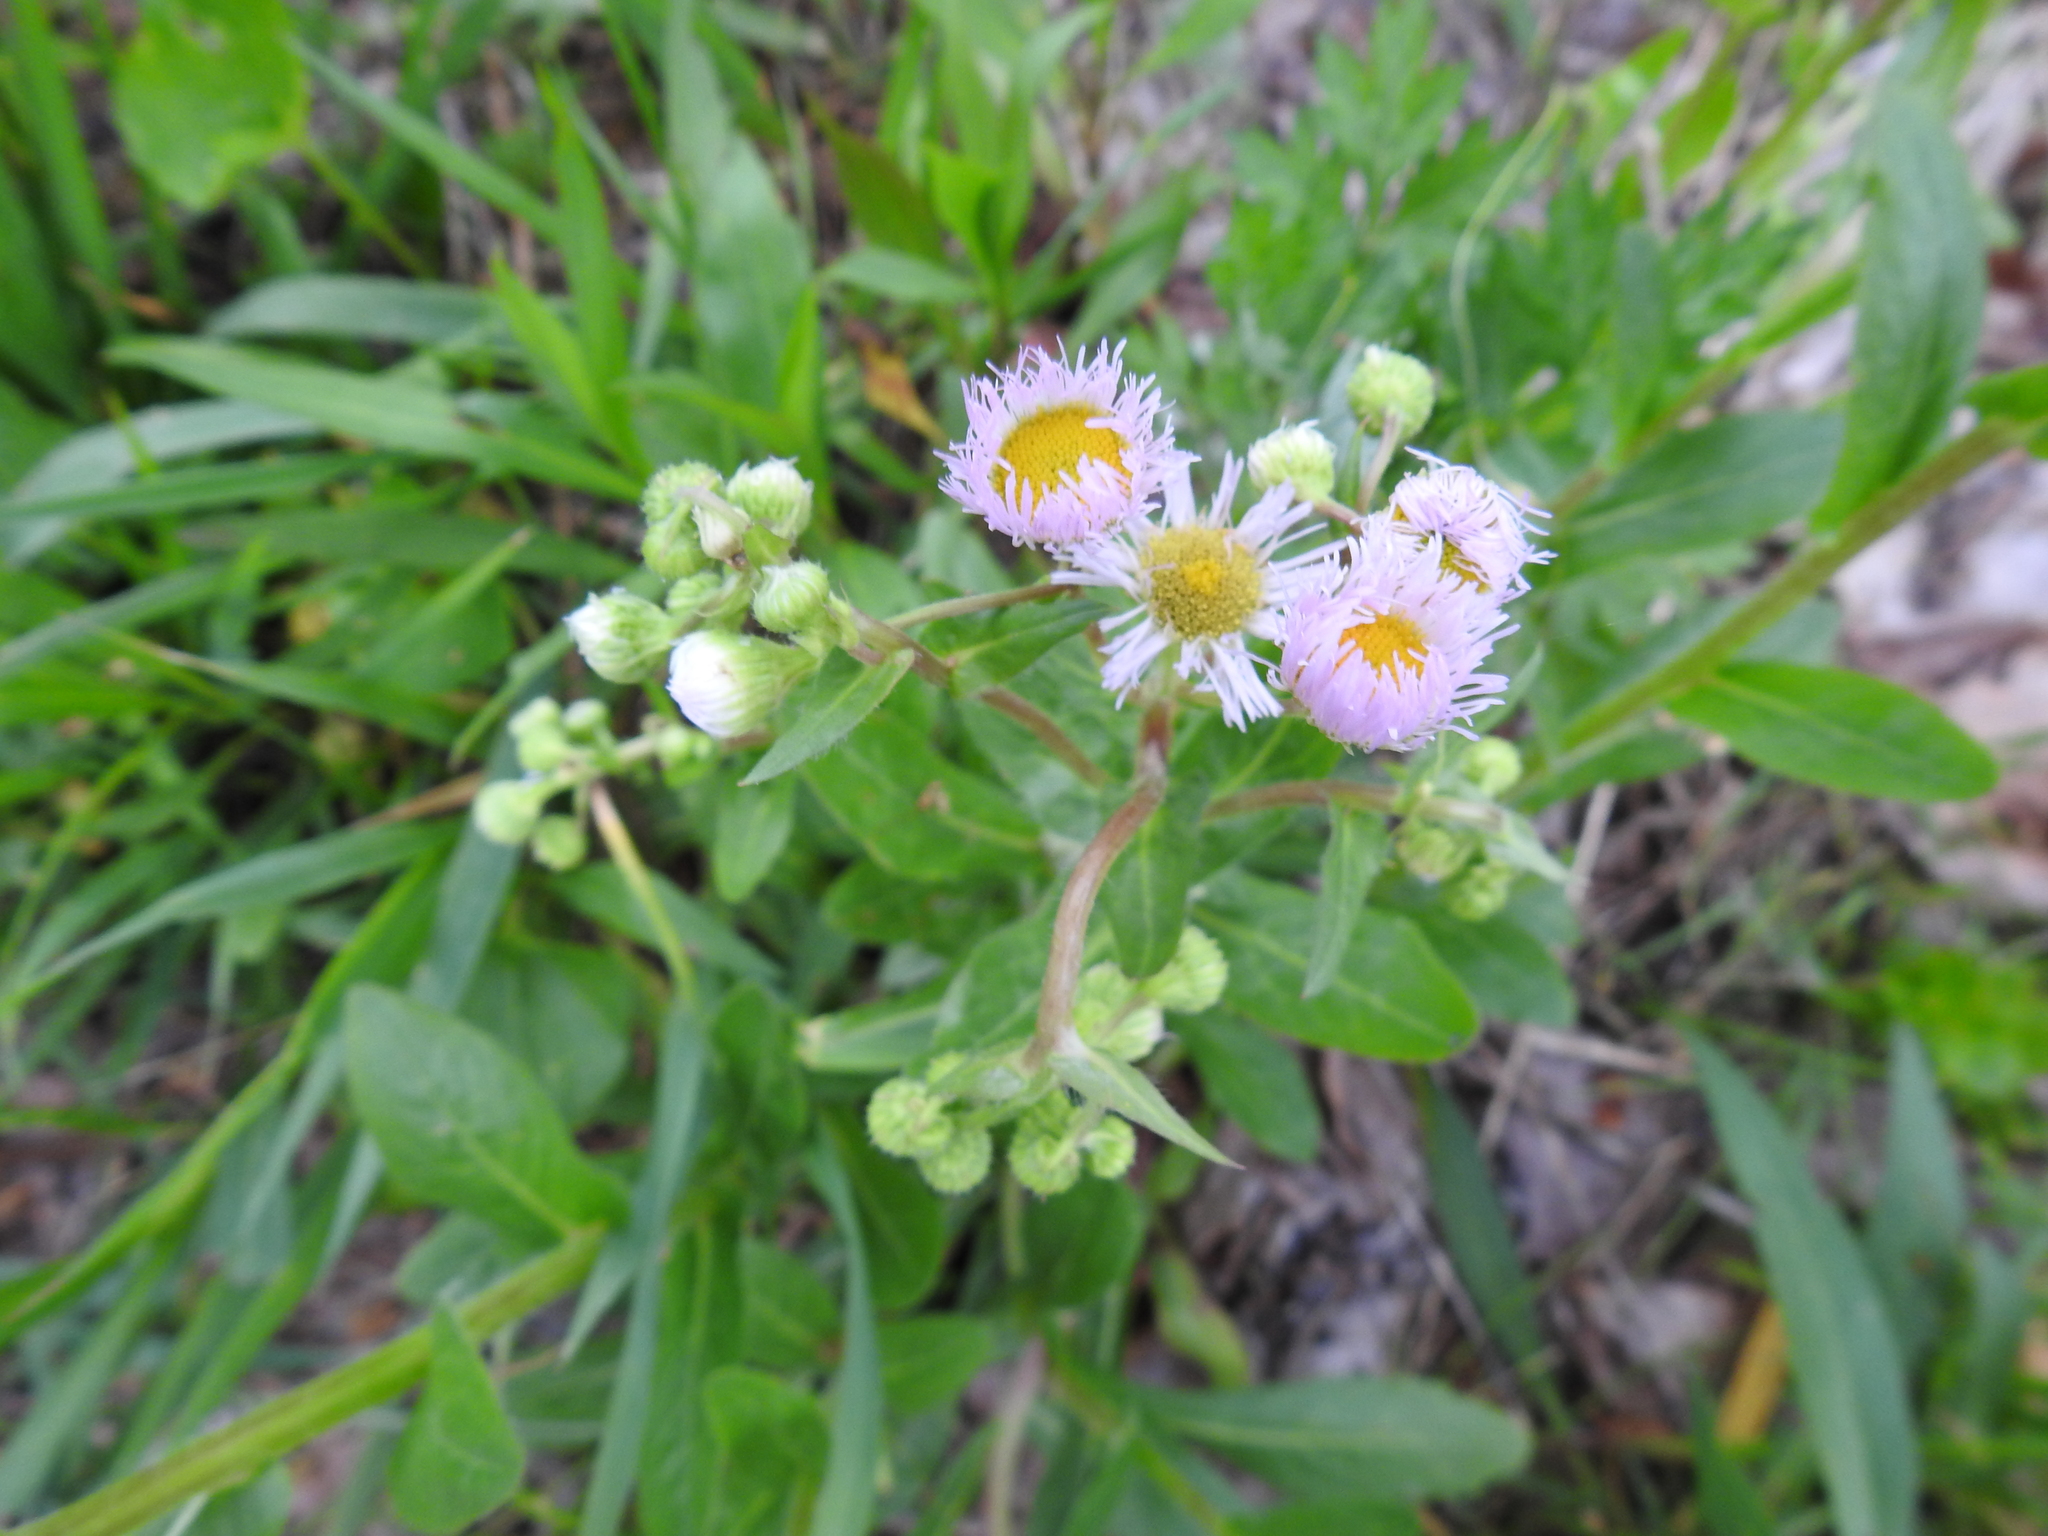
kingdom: Plantae
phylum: Tracheophyta
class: Magnoliopsida
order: Asterales
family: Asteraceae
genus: Erigeron
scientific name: Erigeron philadelphicus
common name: Robin's-plantain
